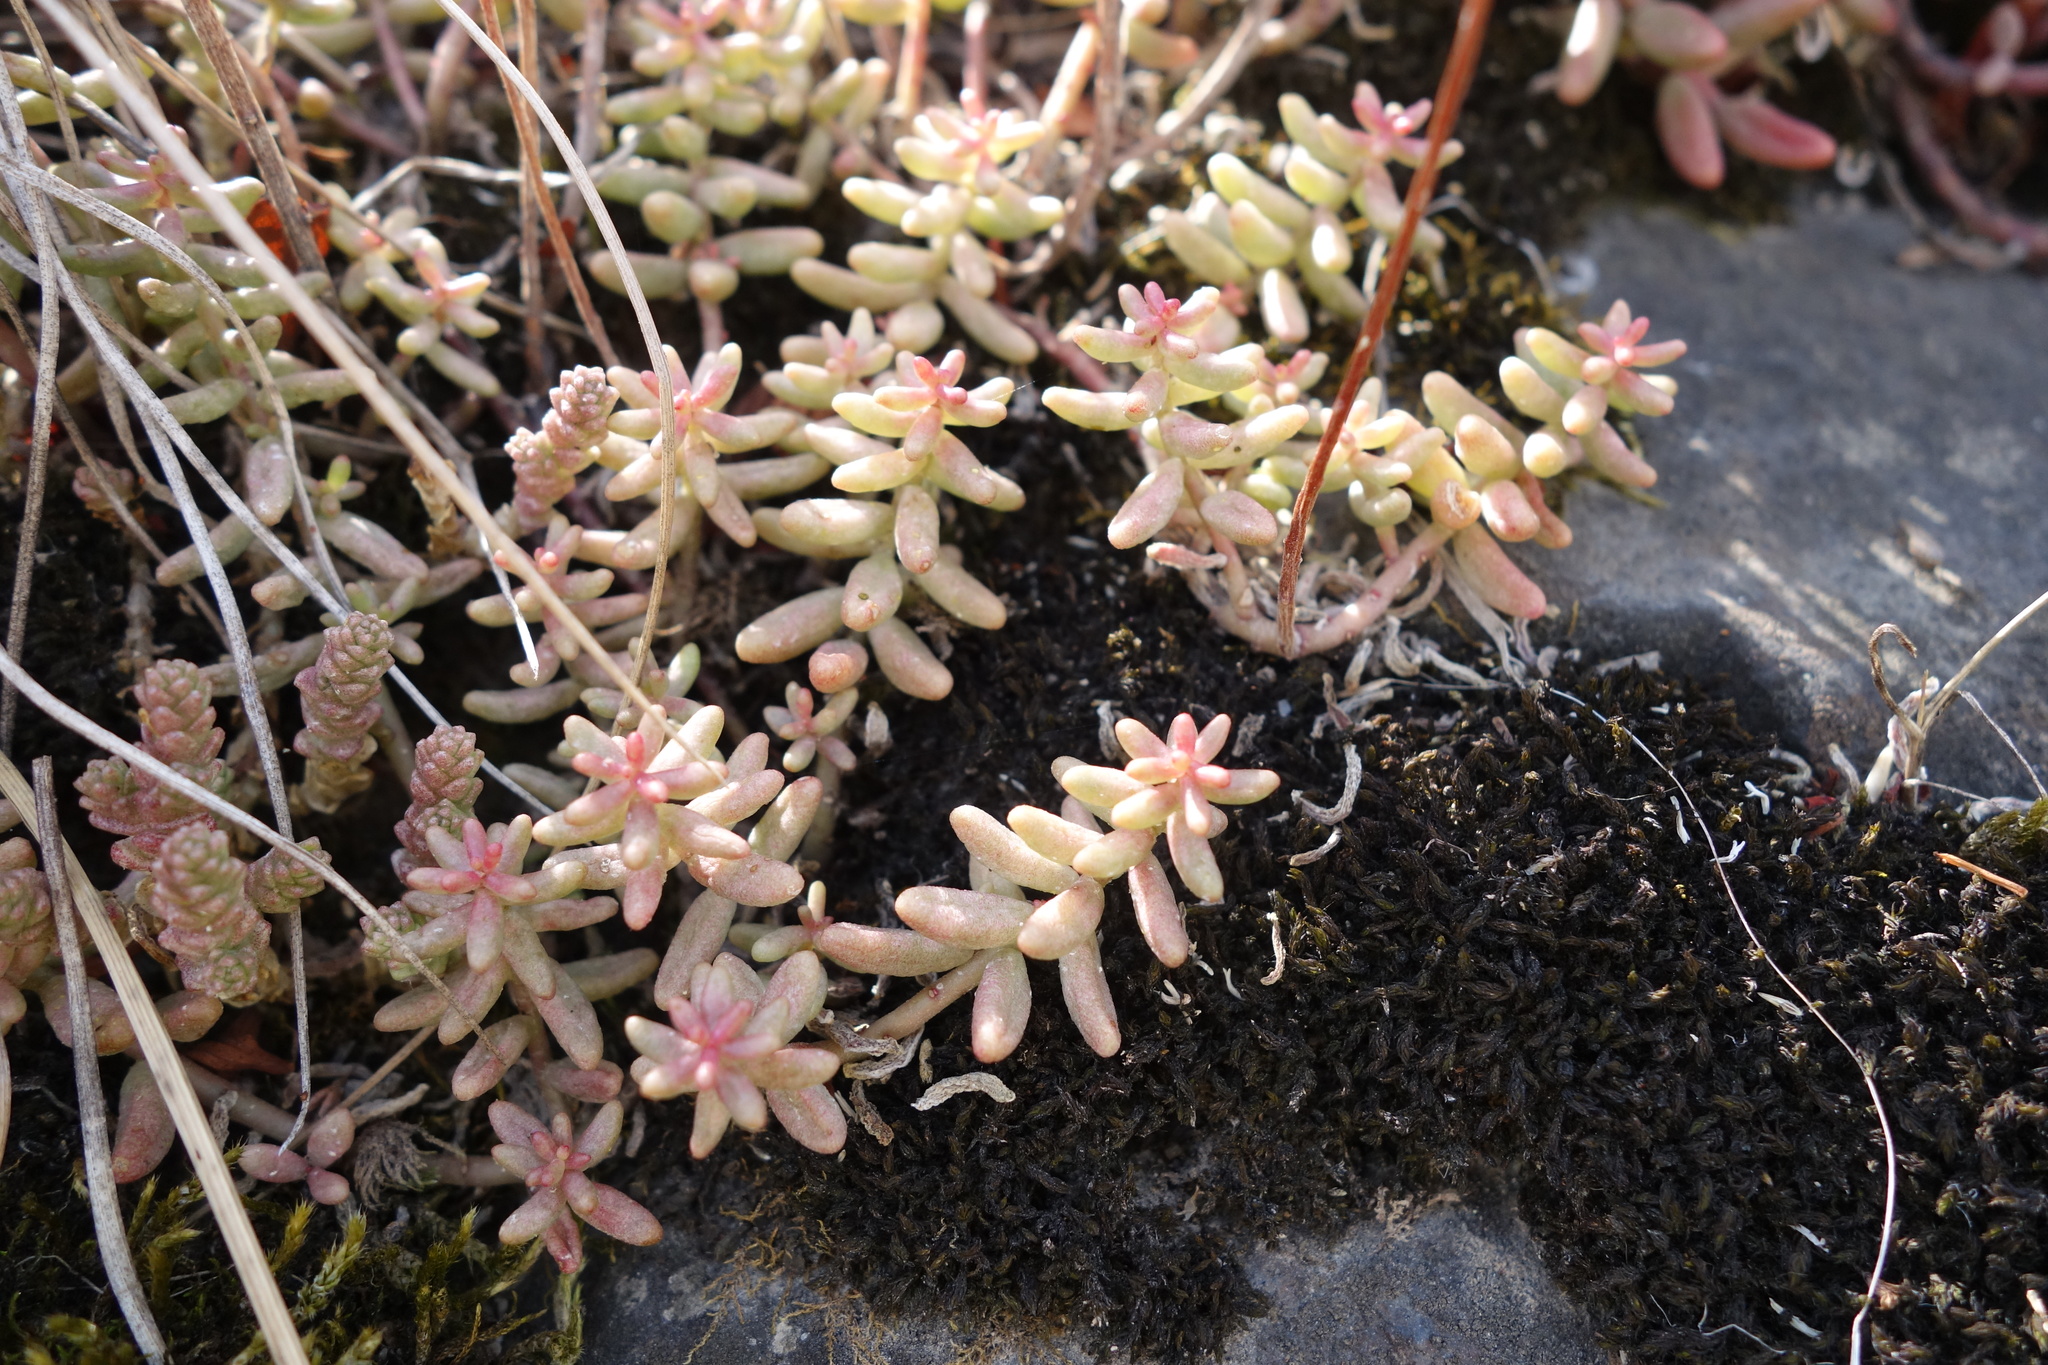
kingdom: Plantae
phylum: Tracheophyta
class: Magnoliopsida
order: Saxifragales
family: Crassulaceae
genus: Sedum
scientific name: Sedum album
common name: White stonecrop
